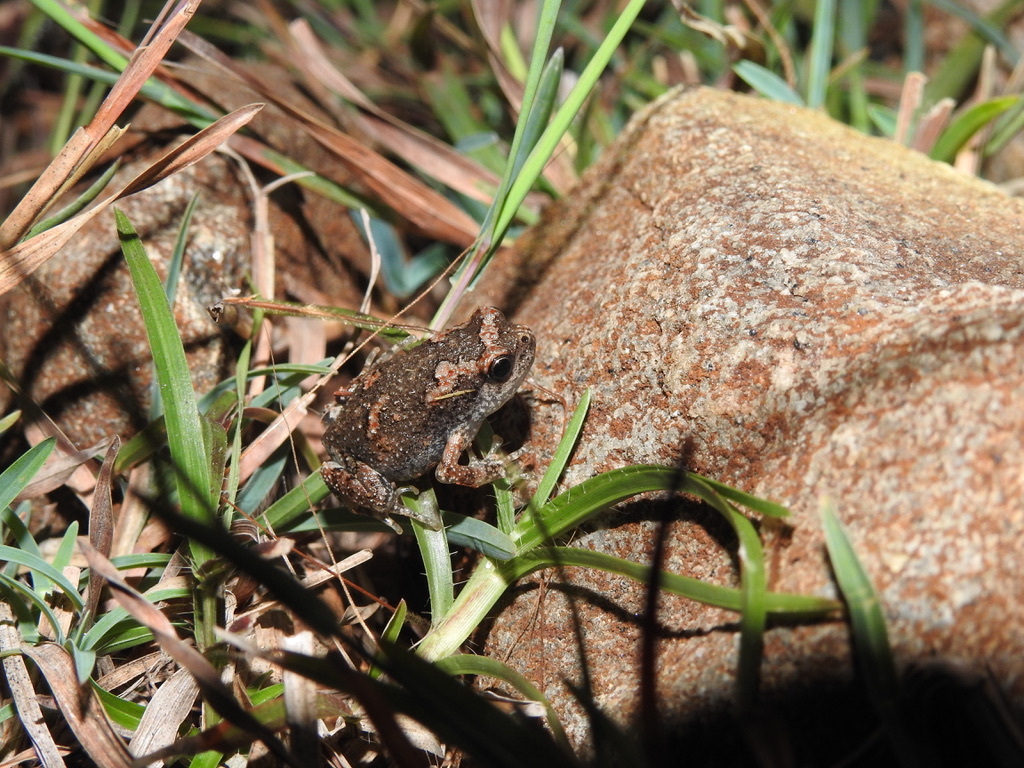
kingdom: Animalia
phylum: Chordata
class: Amphibia
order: Anura
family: Microhylidae
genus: Uperodon
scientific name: Uperodon taprobanicus
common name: Ceylon kaloula
